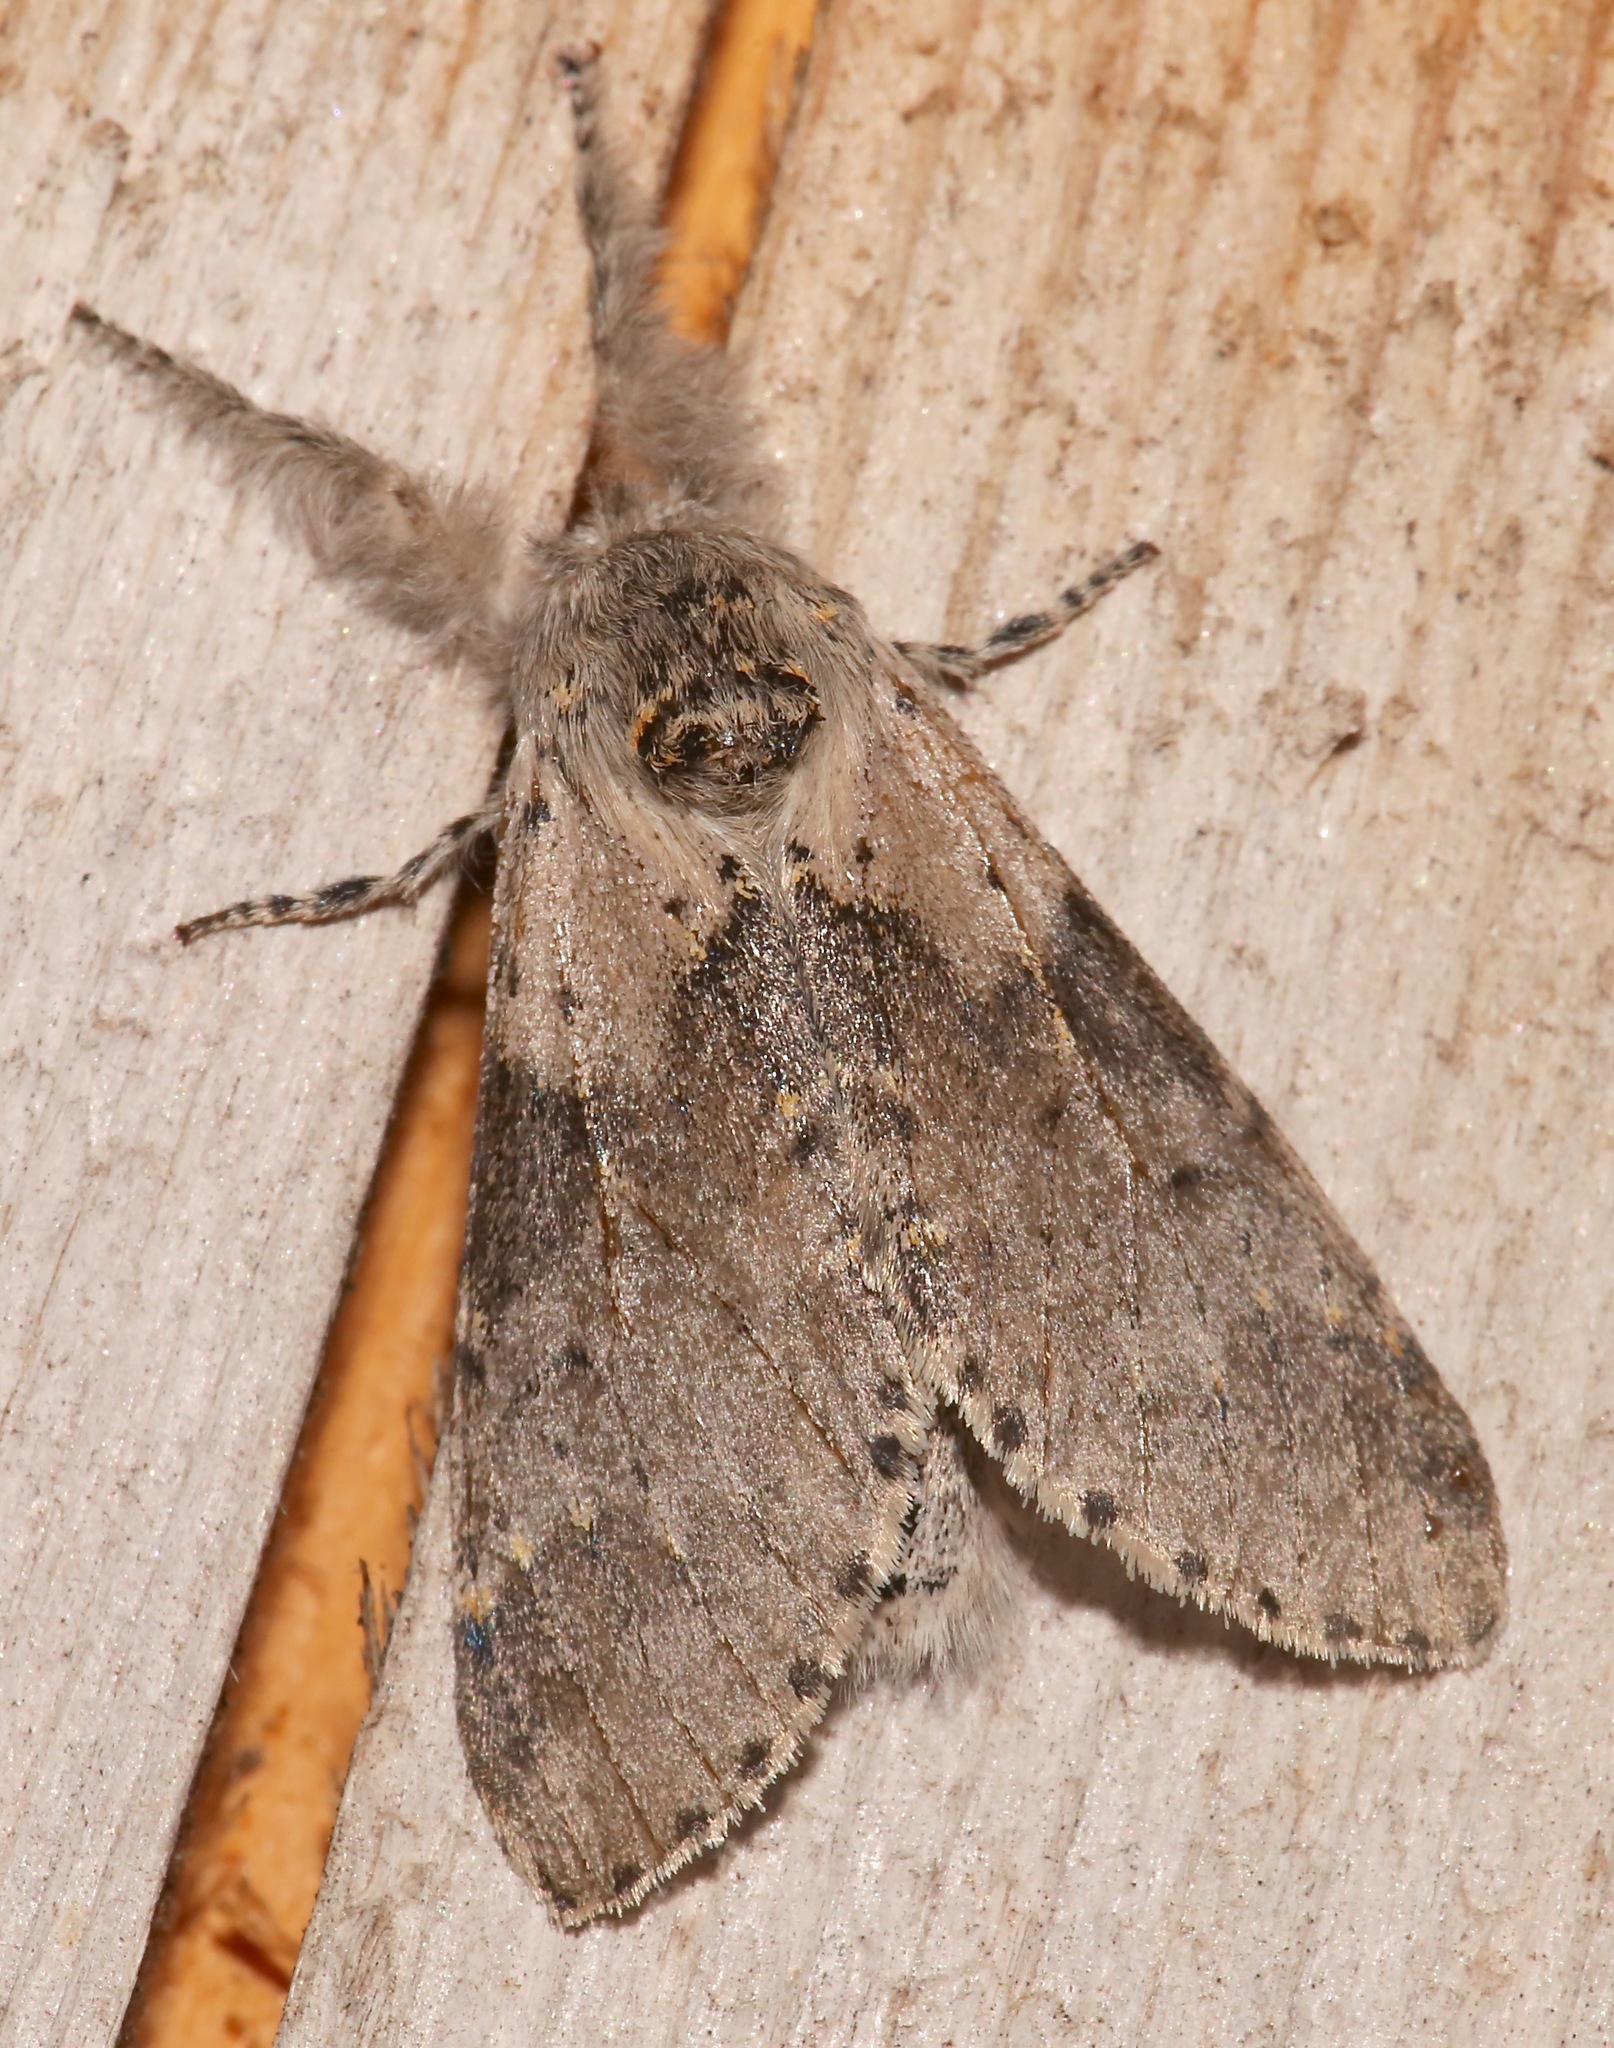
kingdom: Animalia
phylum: Arthropoda
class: Insecta
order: Lepidoptera
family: Notodontidae
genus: Furcula
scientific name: Furcula cinerea
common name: Gray furcula
